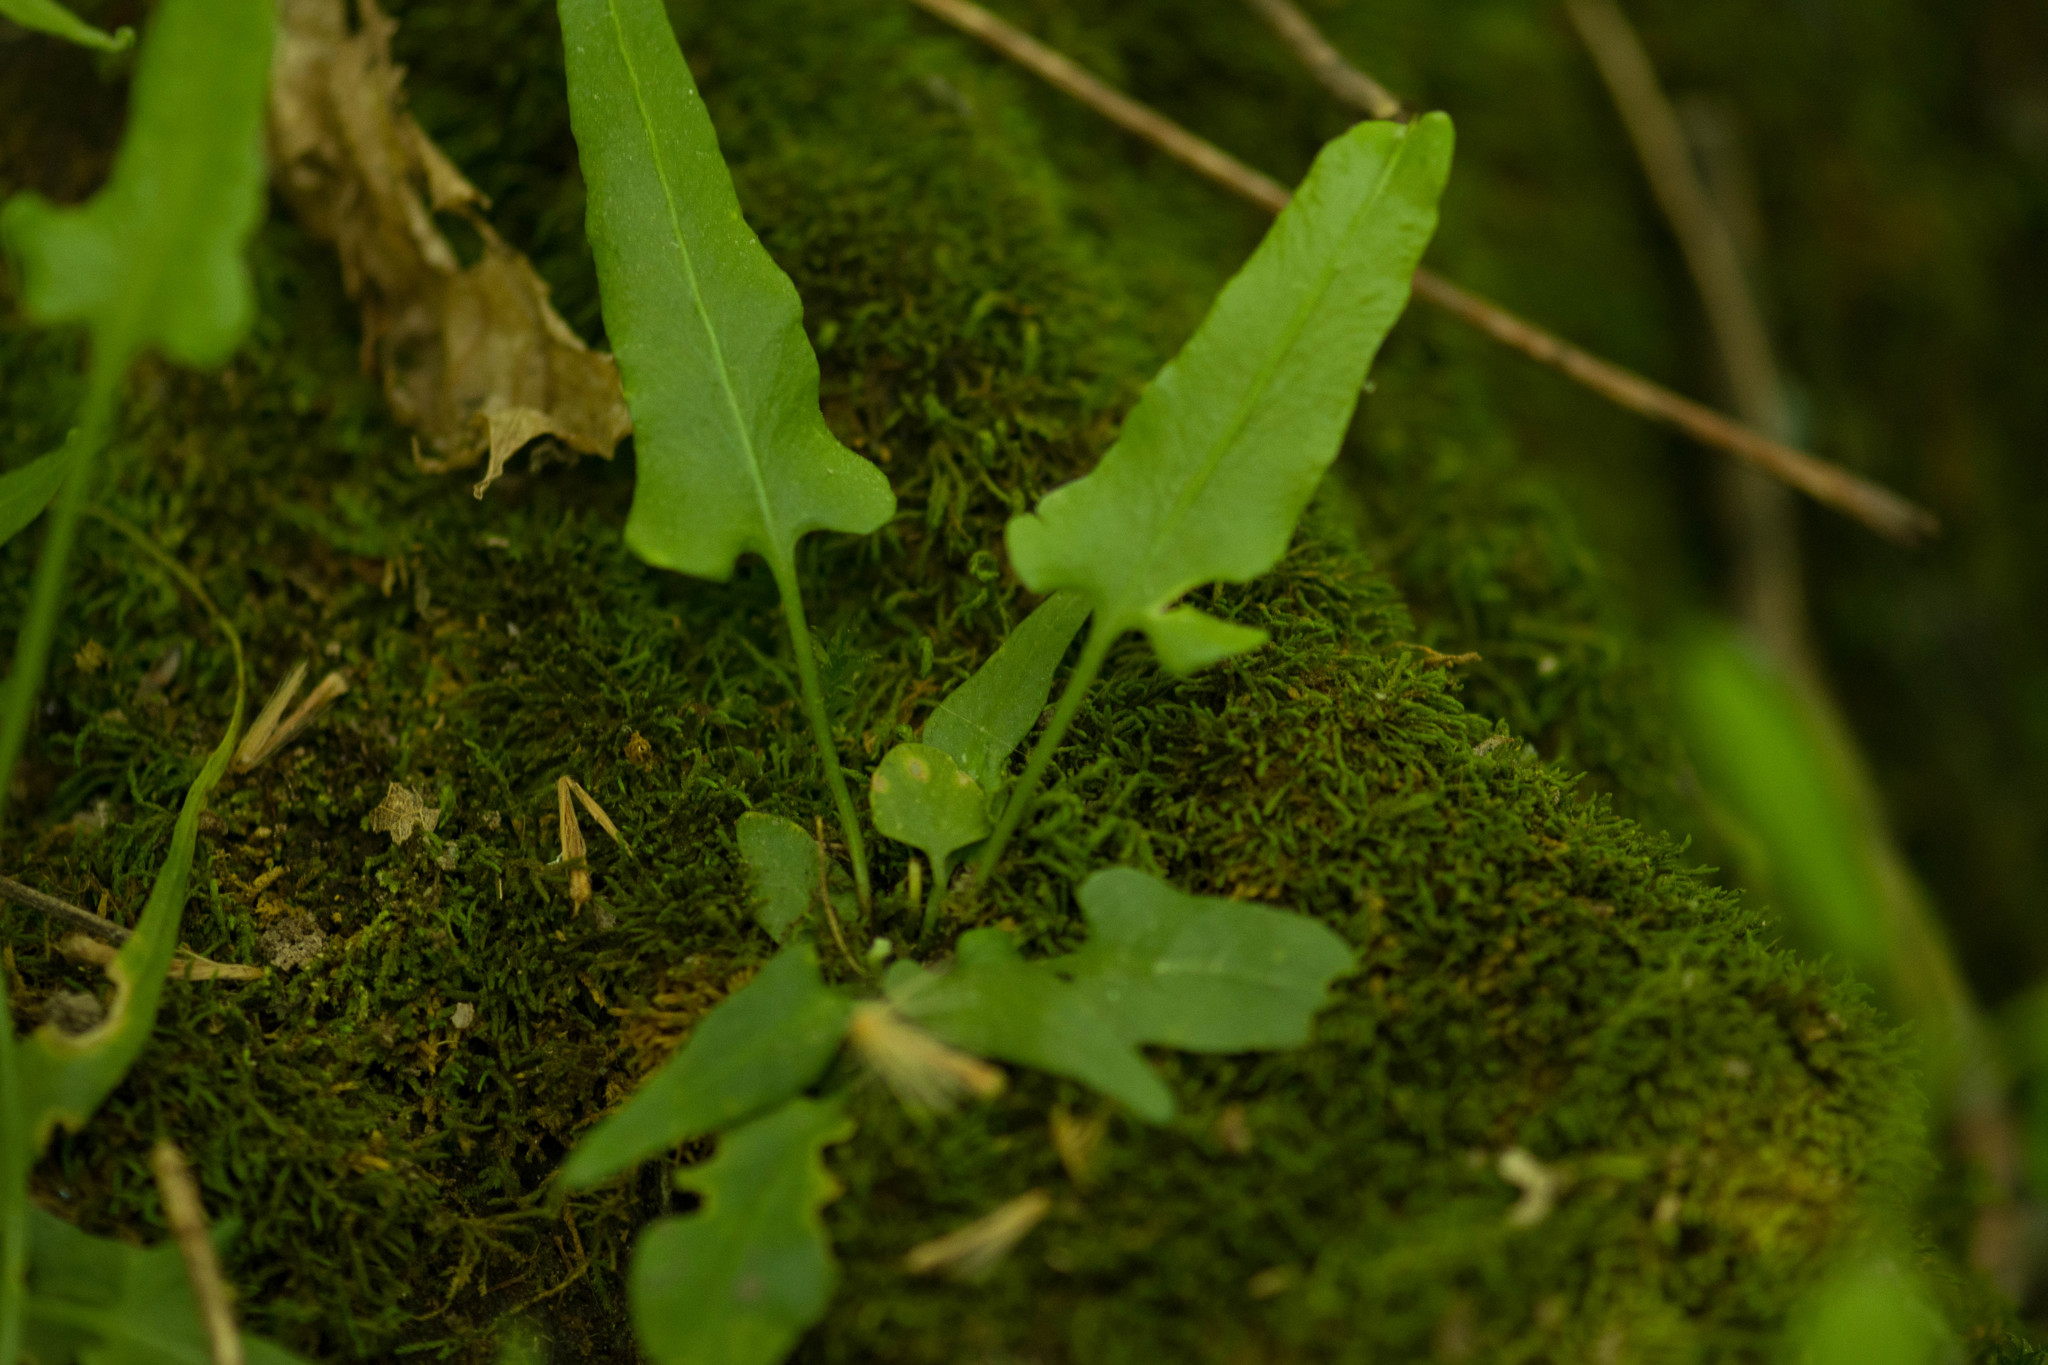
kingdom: Plantae
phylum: Tracheophyta
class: Polypodiopsida
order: Polypodiales
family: Aspleniaceae
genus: Asplenium
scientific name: Asplenium rhizophyllum
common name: Walking fern
